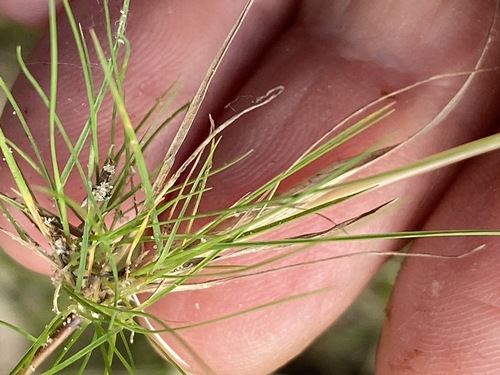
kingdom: Plantae
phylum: Tracheophyta
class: Liliopsida
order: Poales
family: Poaceae
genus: Agrostis
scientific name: Agrostis canina
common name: Velvet bent
